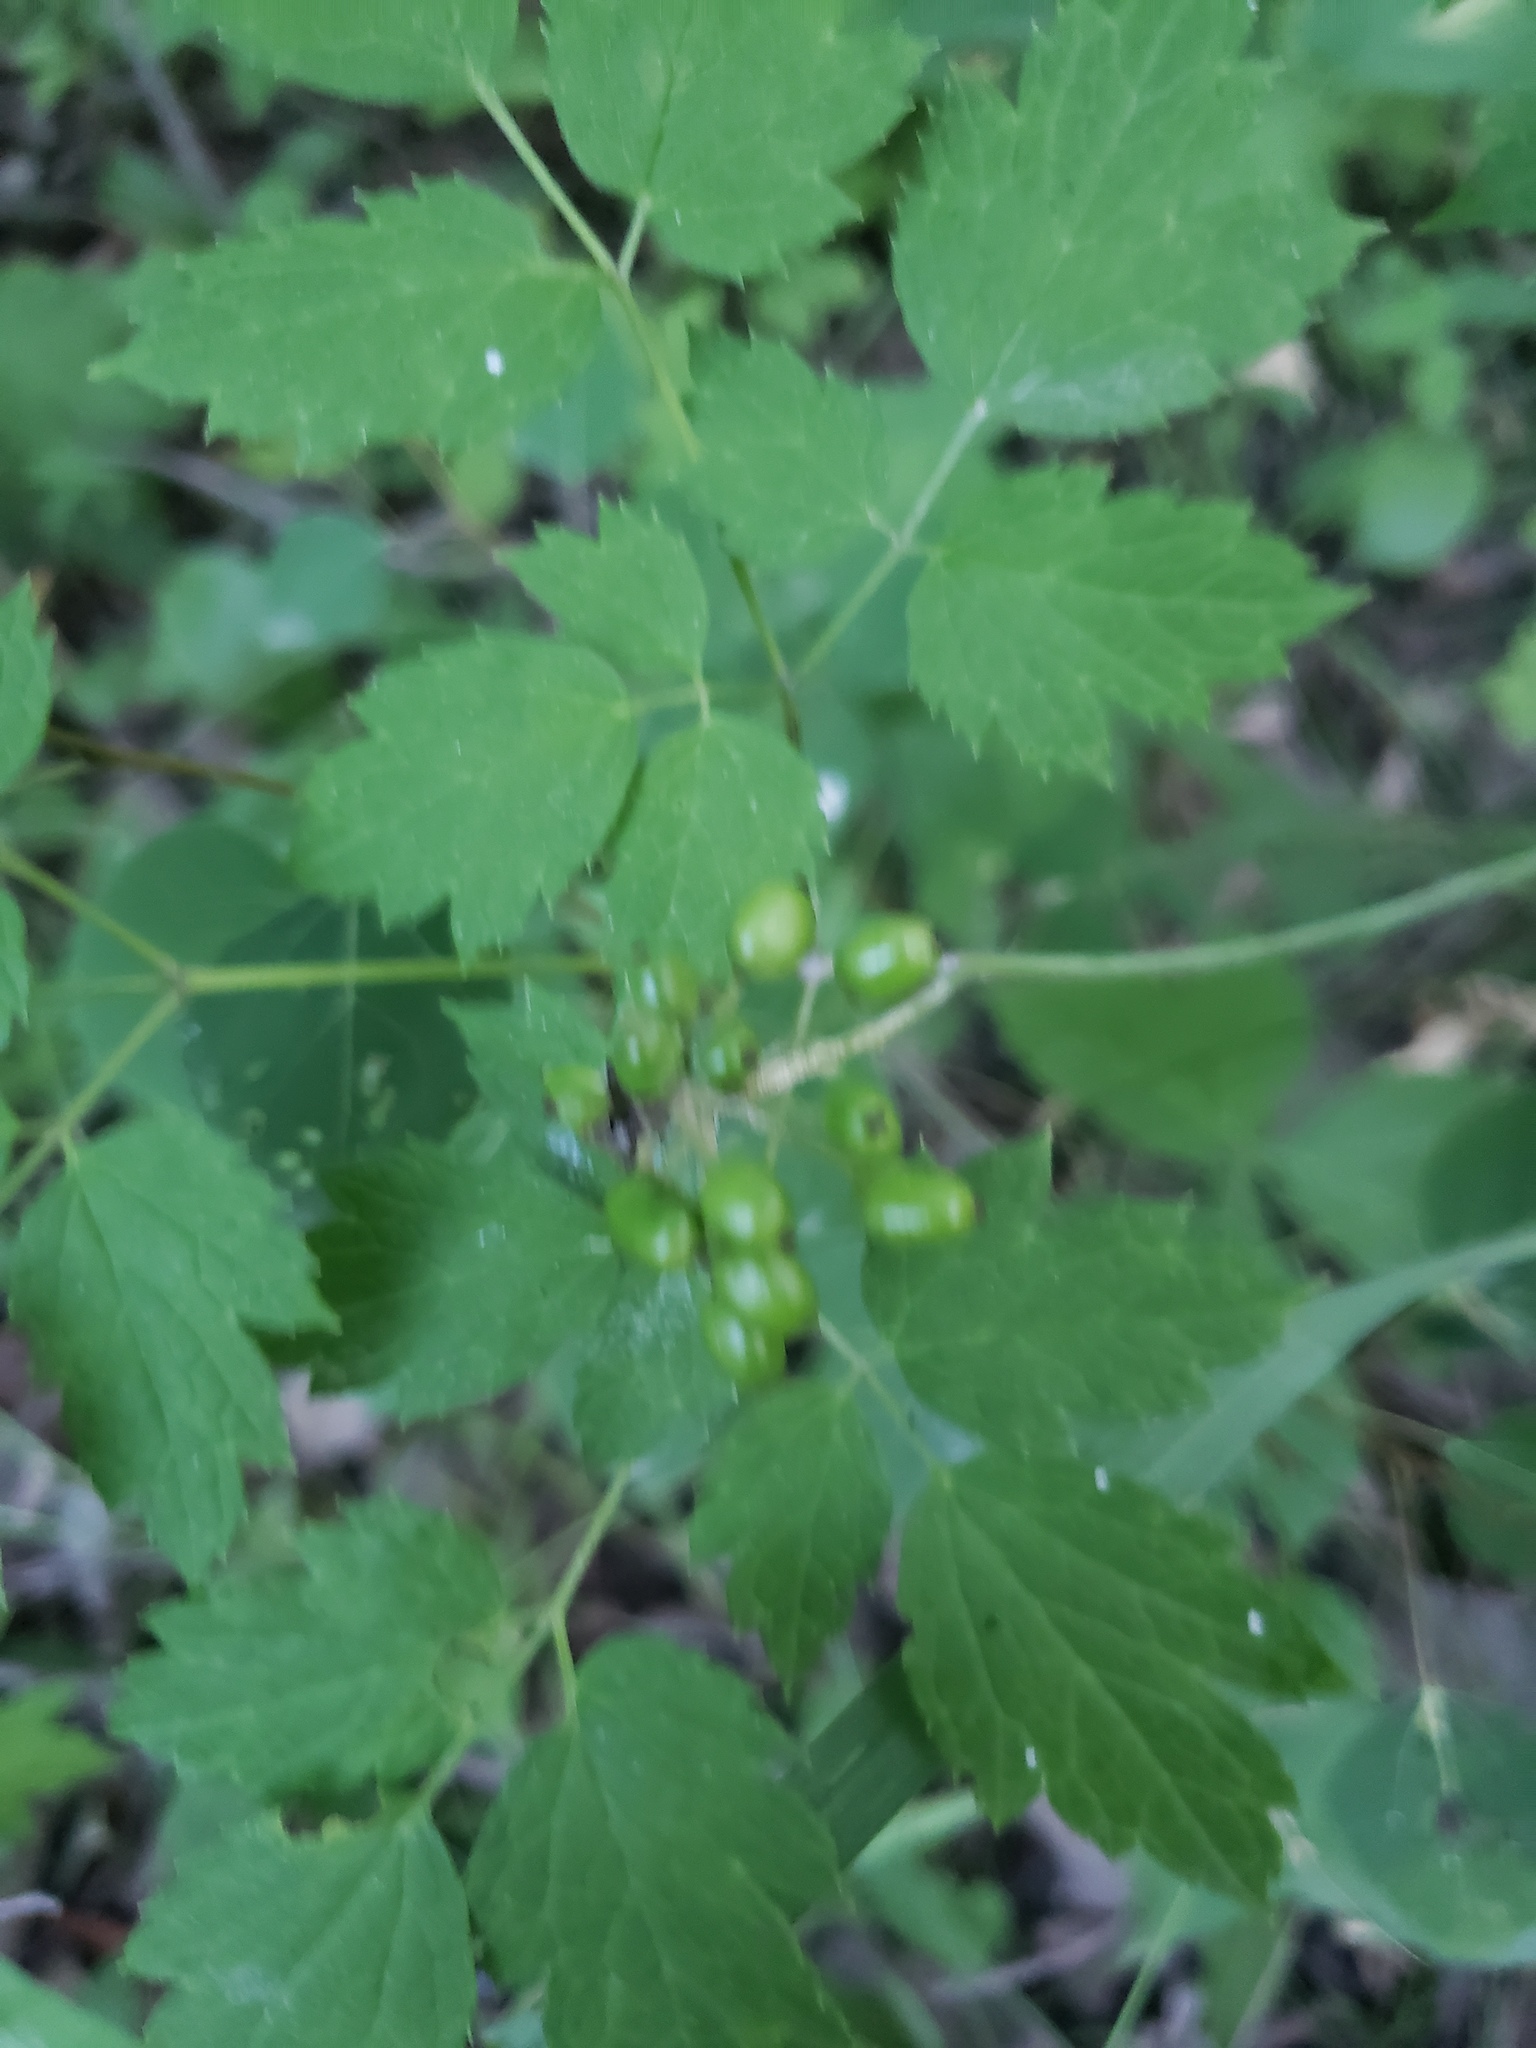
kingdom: Plantae
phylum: Tracheophyta
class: Magnoliopsida
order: Ranunculales
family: Ranunculaceae
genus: Actaea
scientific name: Actaea rubra
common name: Red baneberry
